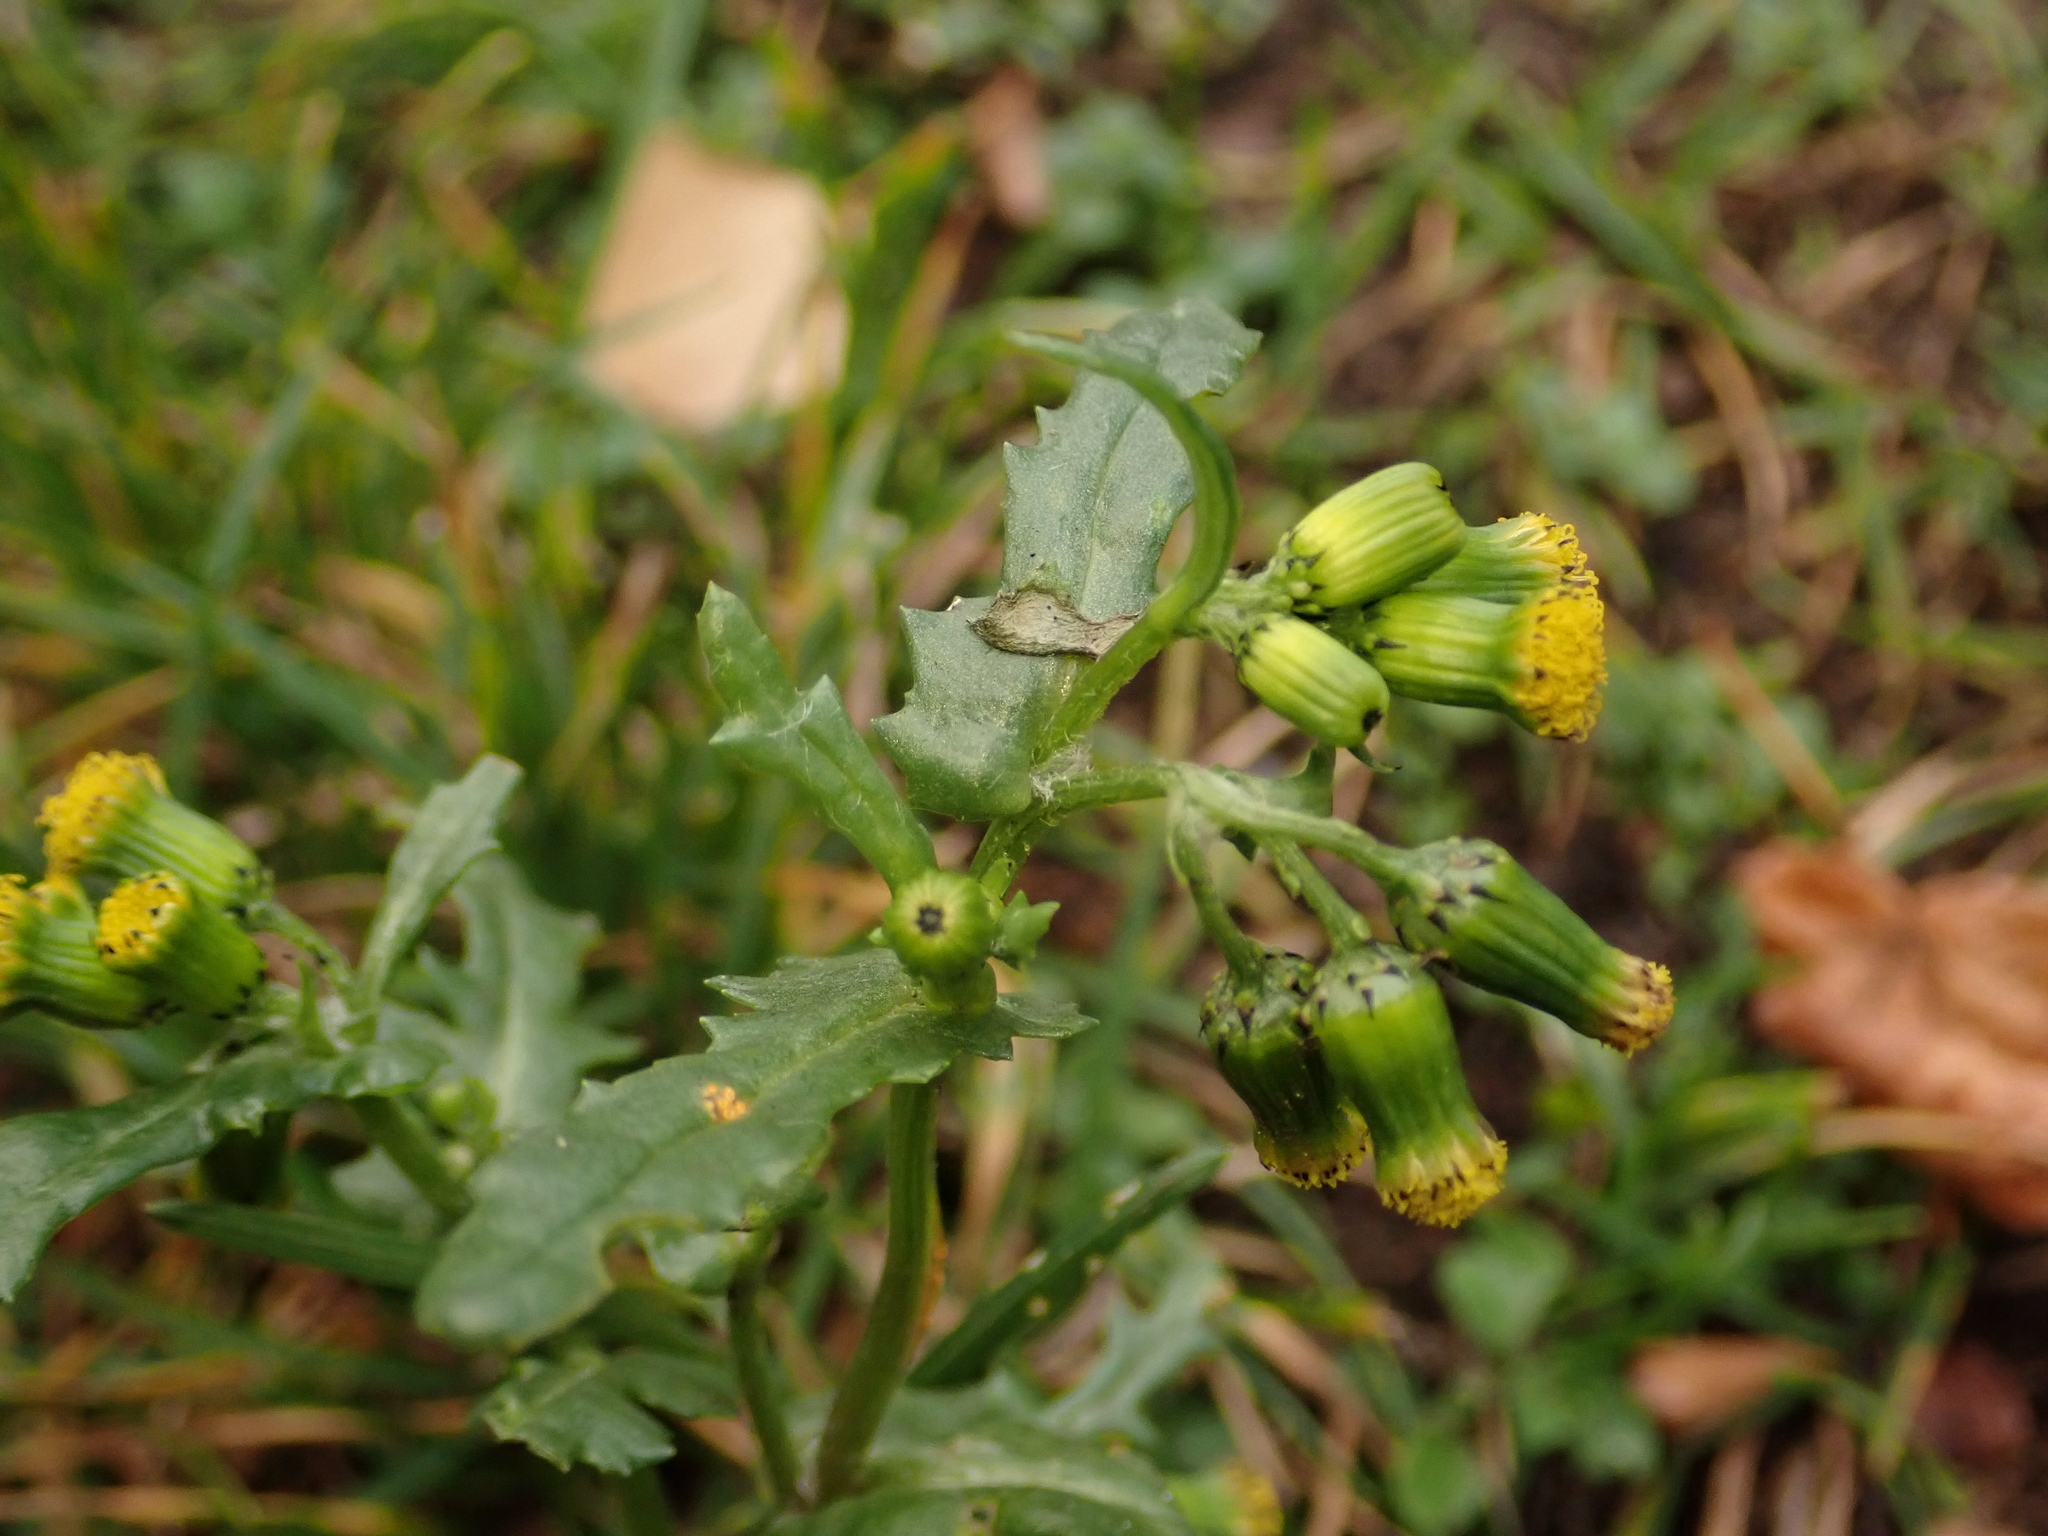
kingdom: Plantae
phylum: Tracheophyta
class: Magnoliopsida
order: Asterales
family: Asteraceae
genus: Senecio
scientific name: Senecio vulgaris
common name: Old-man-in-the-spring
